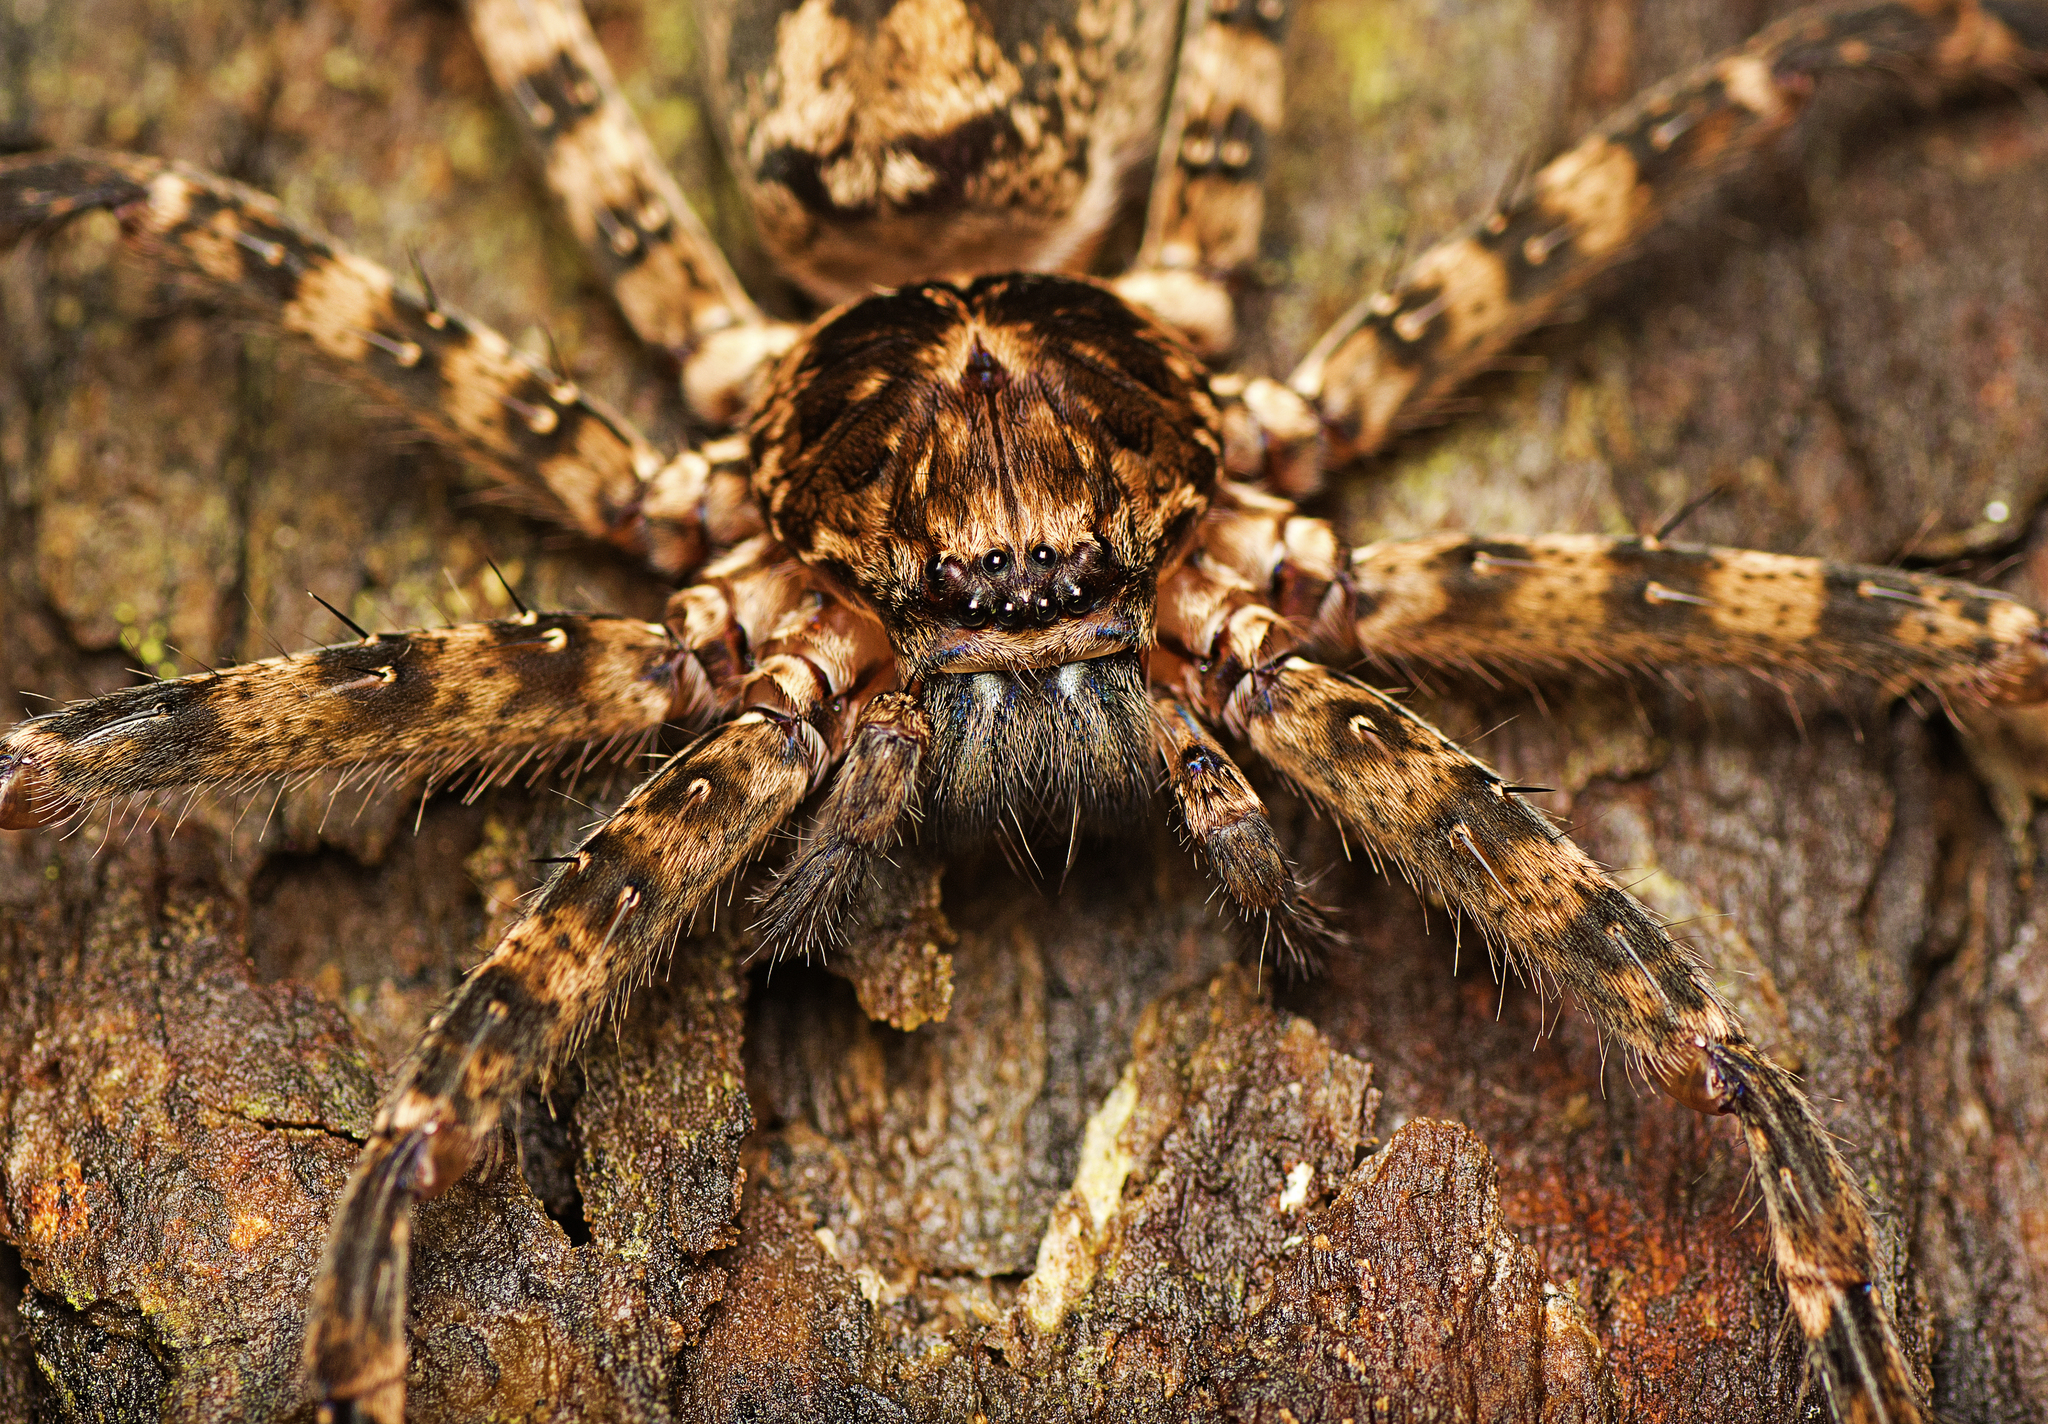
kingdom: Animalia
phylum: Arthropoda
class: Arachnida
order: Araneae
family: Sparassidae
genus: Heteropoda
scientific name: Heteropoda procera
